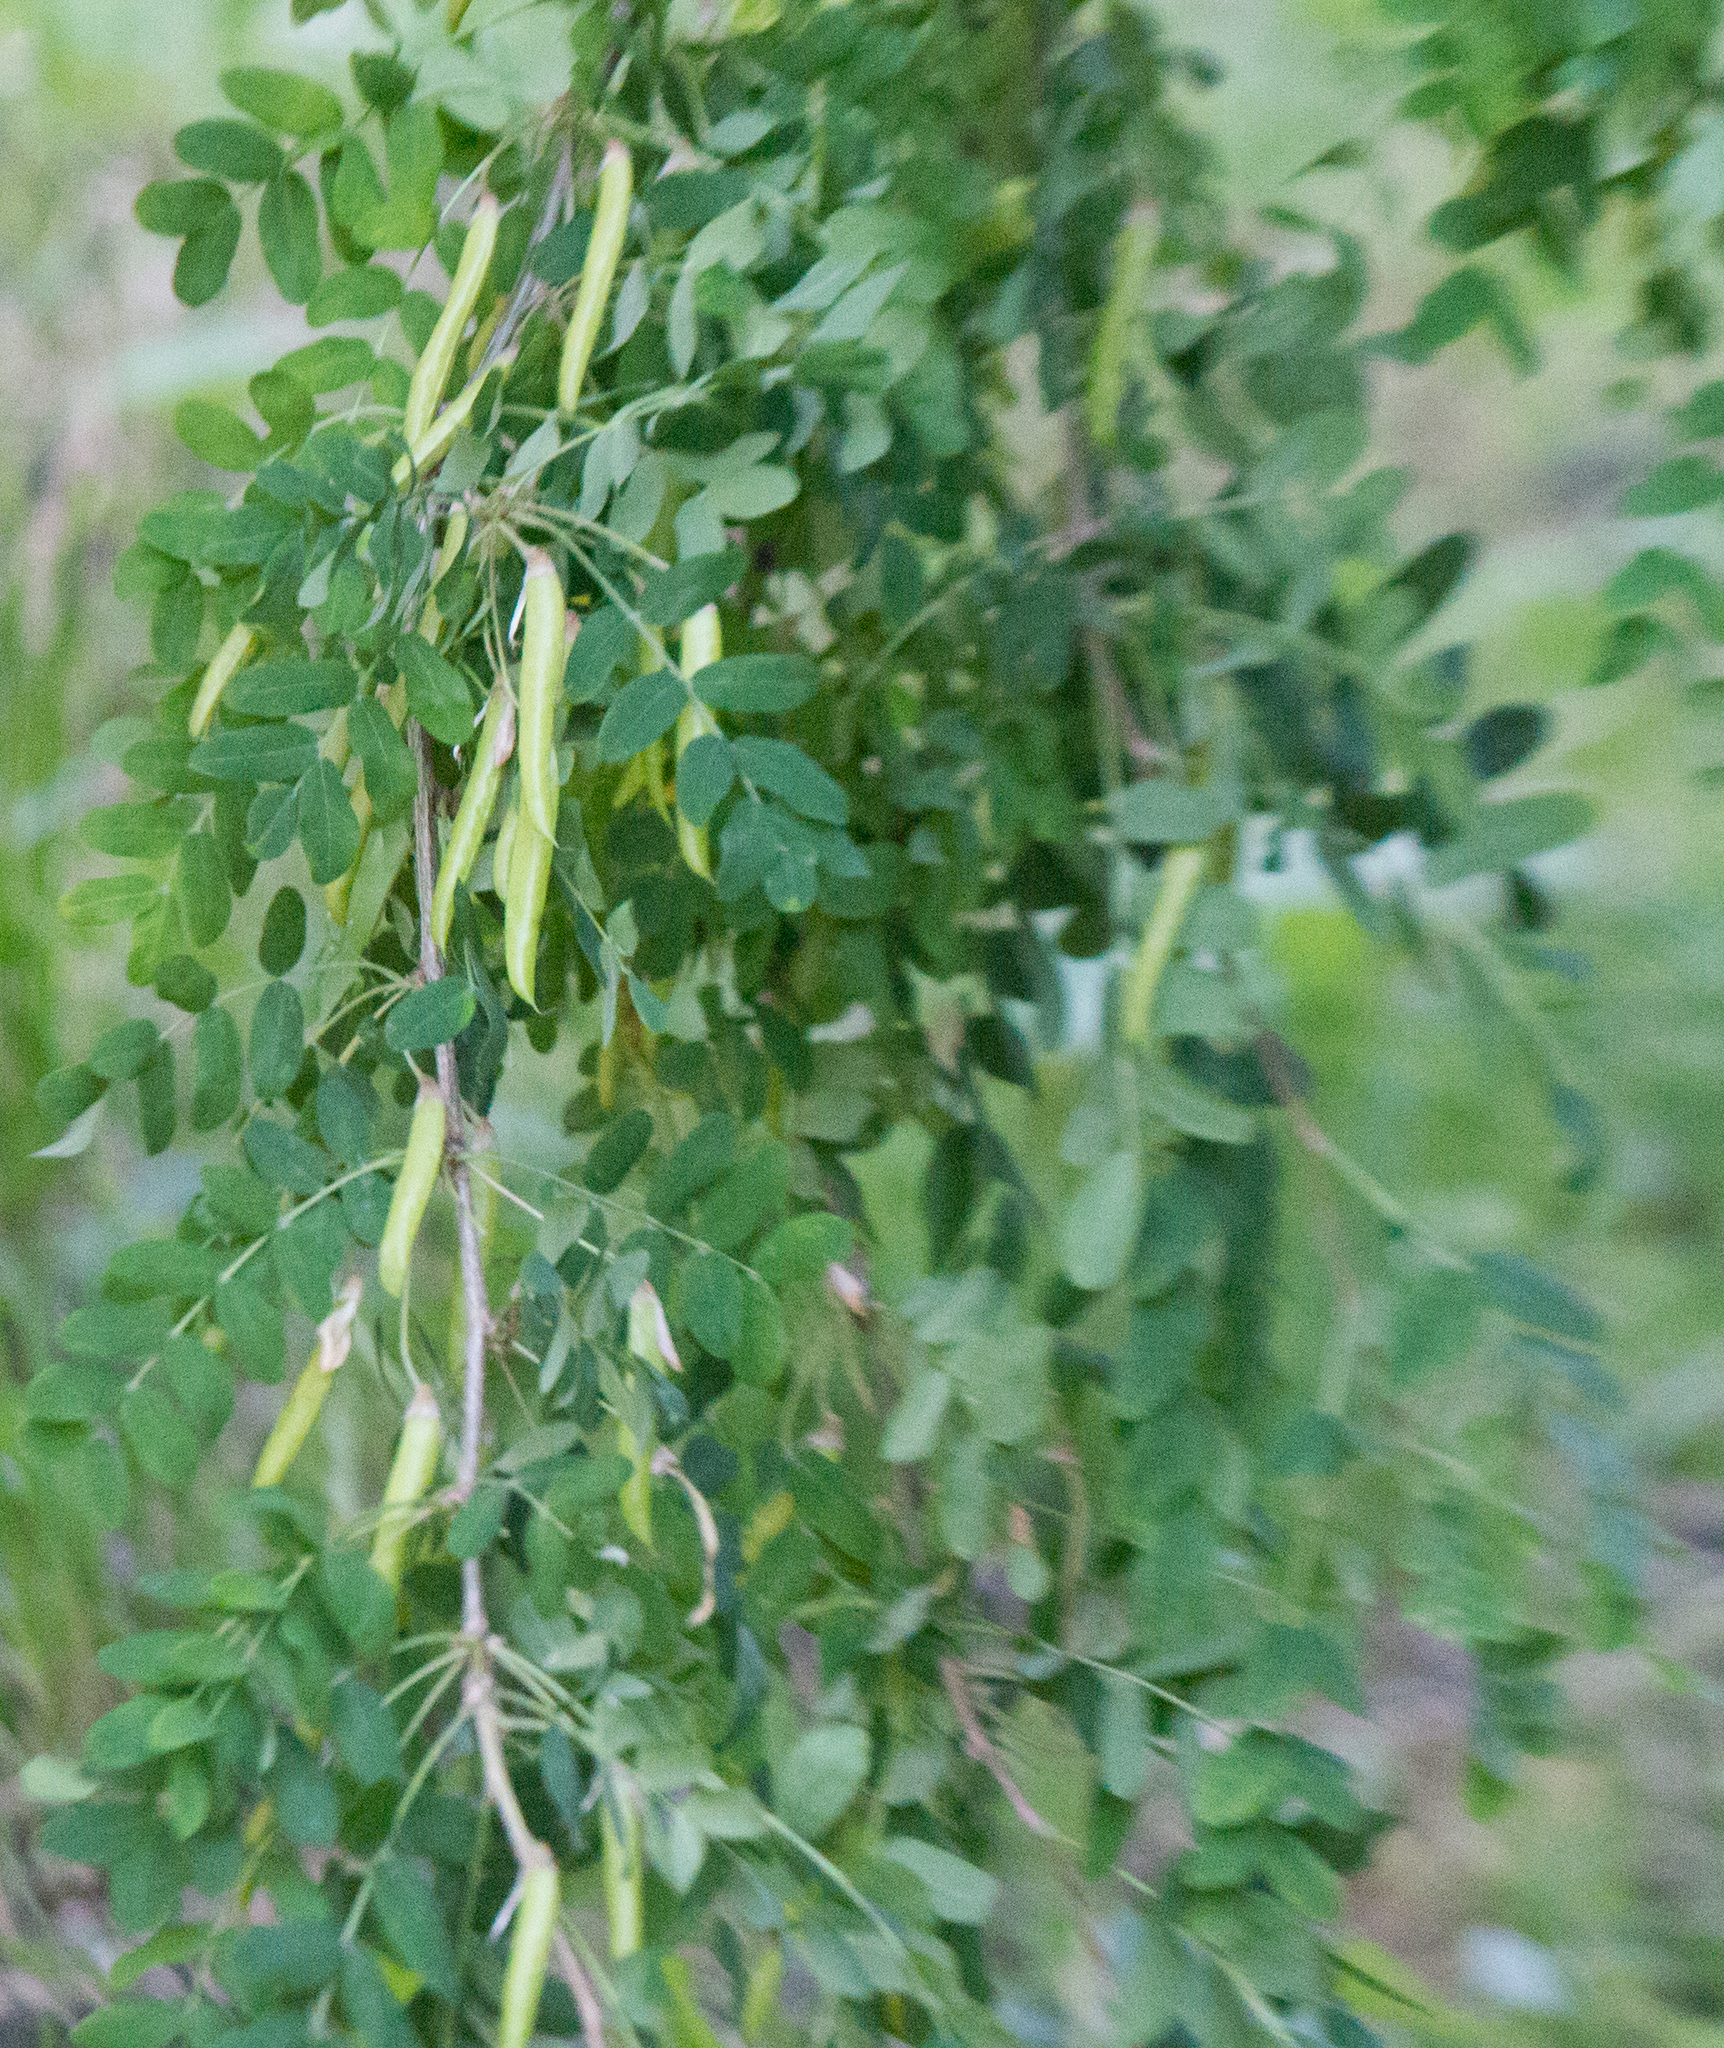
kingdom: Plantae
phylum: Tracheophyta
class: Magnoliopsida
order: Fabales
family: Fabaceae
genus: Caragana
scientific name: Caragana arborescens
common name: Siberian peashrub
